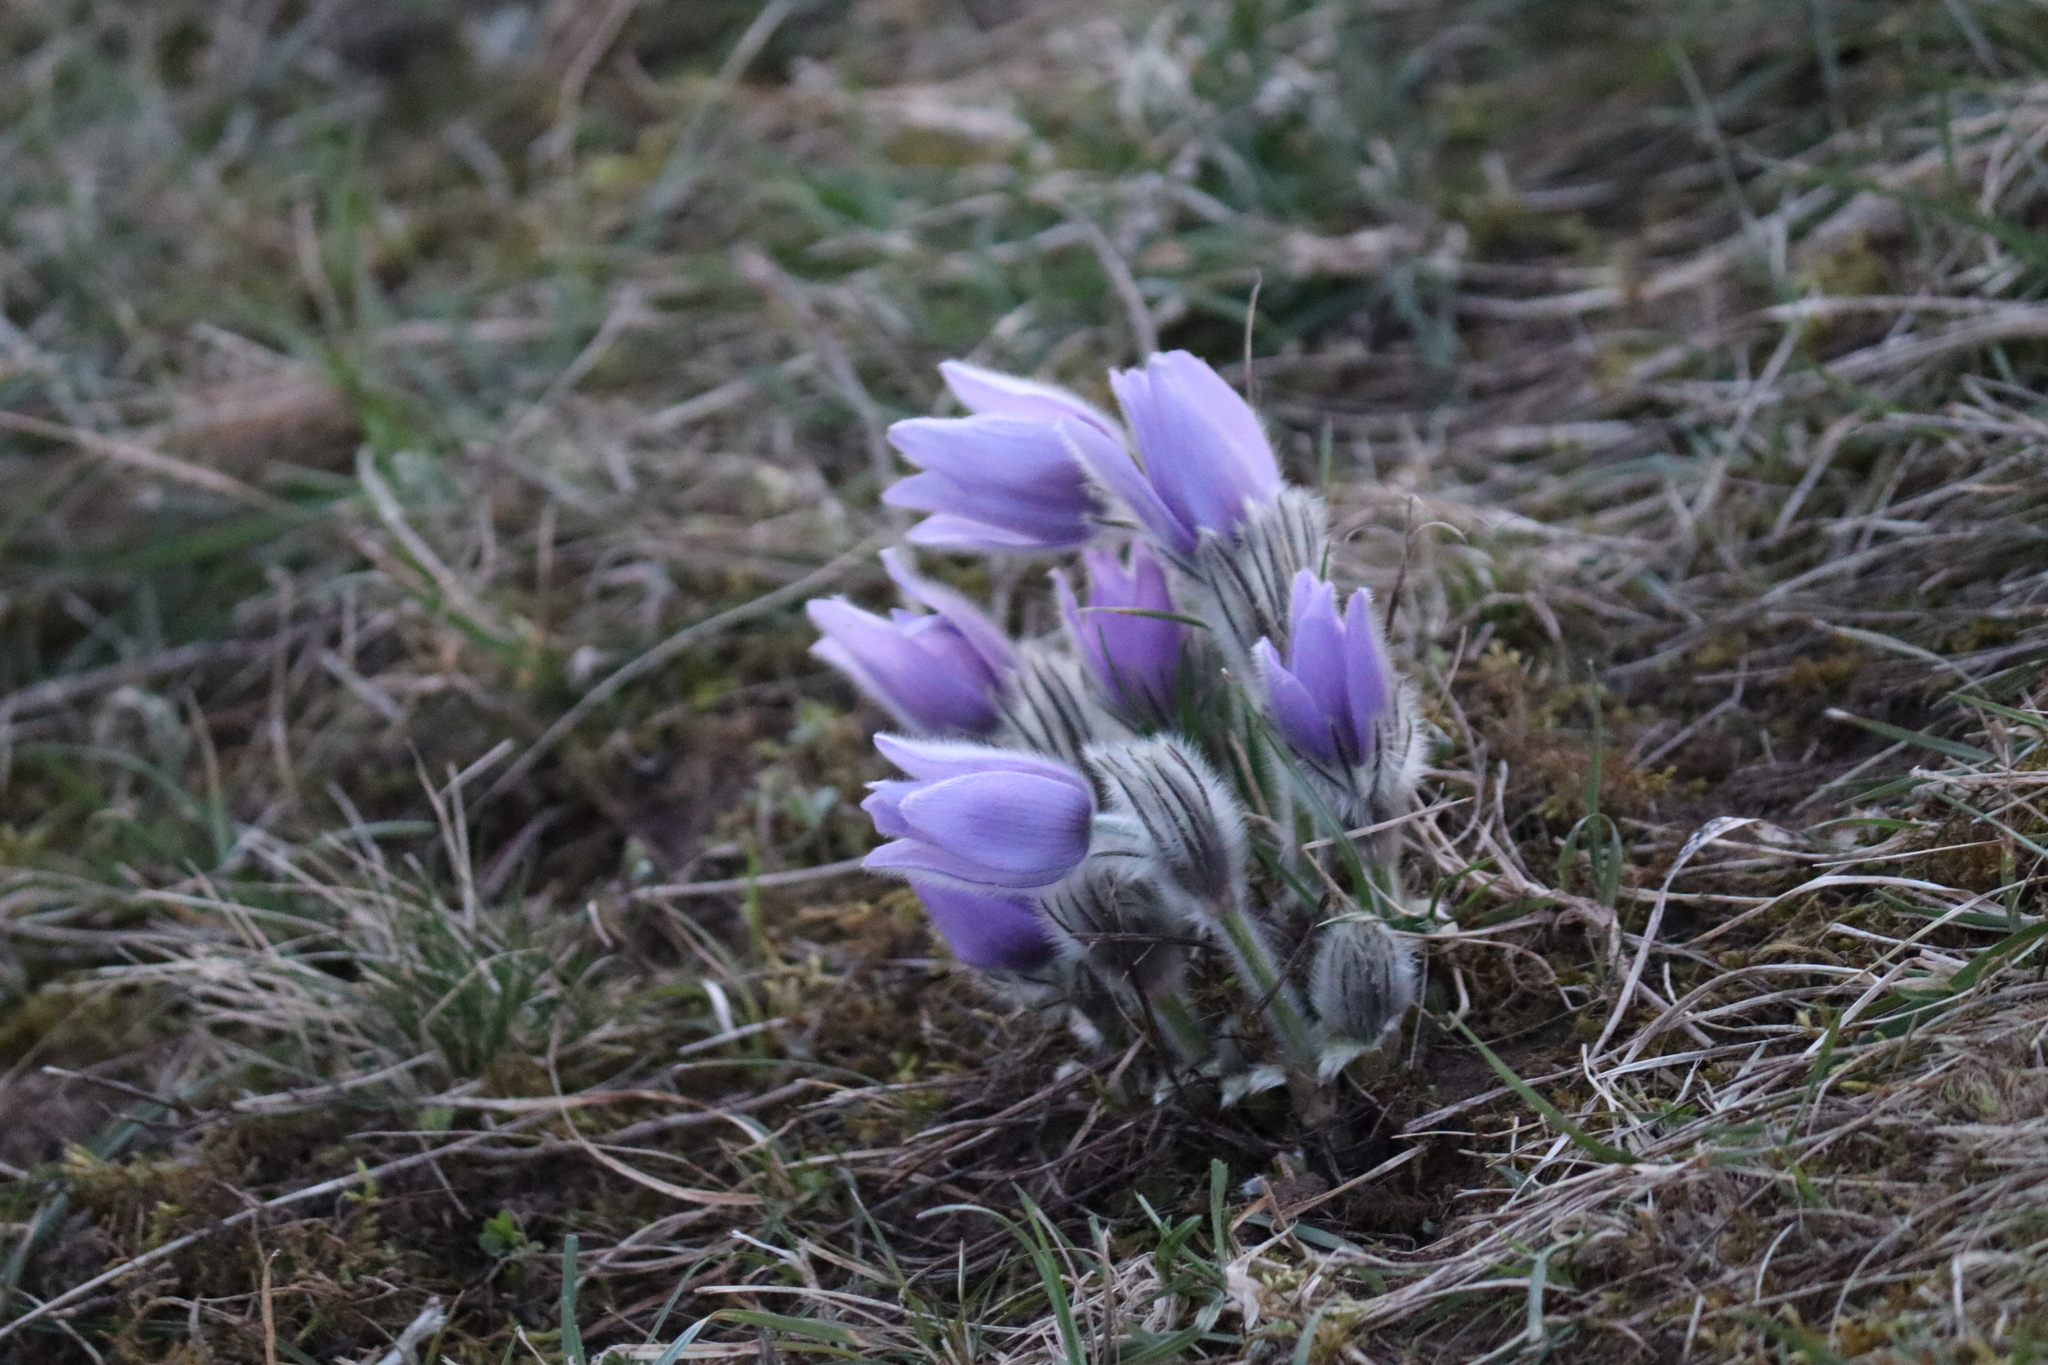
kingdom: Plantae
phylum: Tracheophyta
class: Magnoliopsida
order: Ranunculales
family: Ranunculaceae
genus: Pulsatilla
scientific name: Pulsatilla grandis
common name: Greater pasque flower
